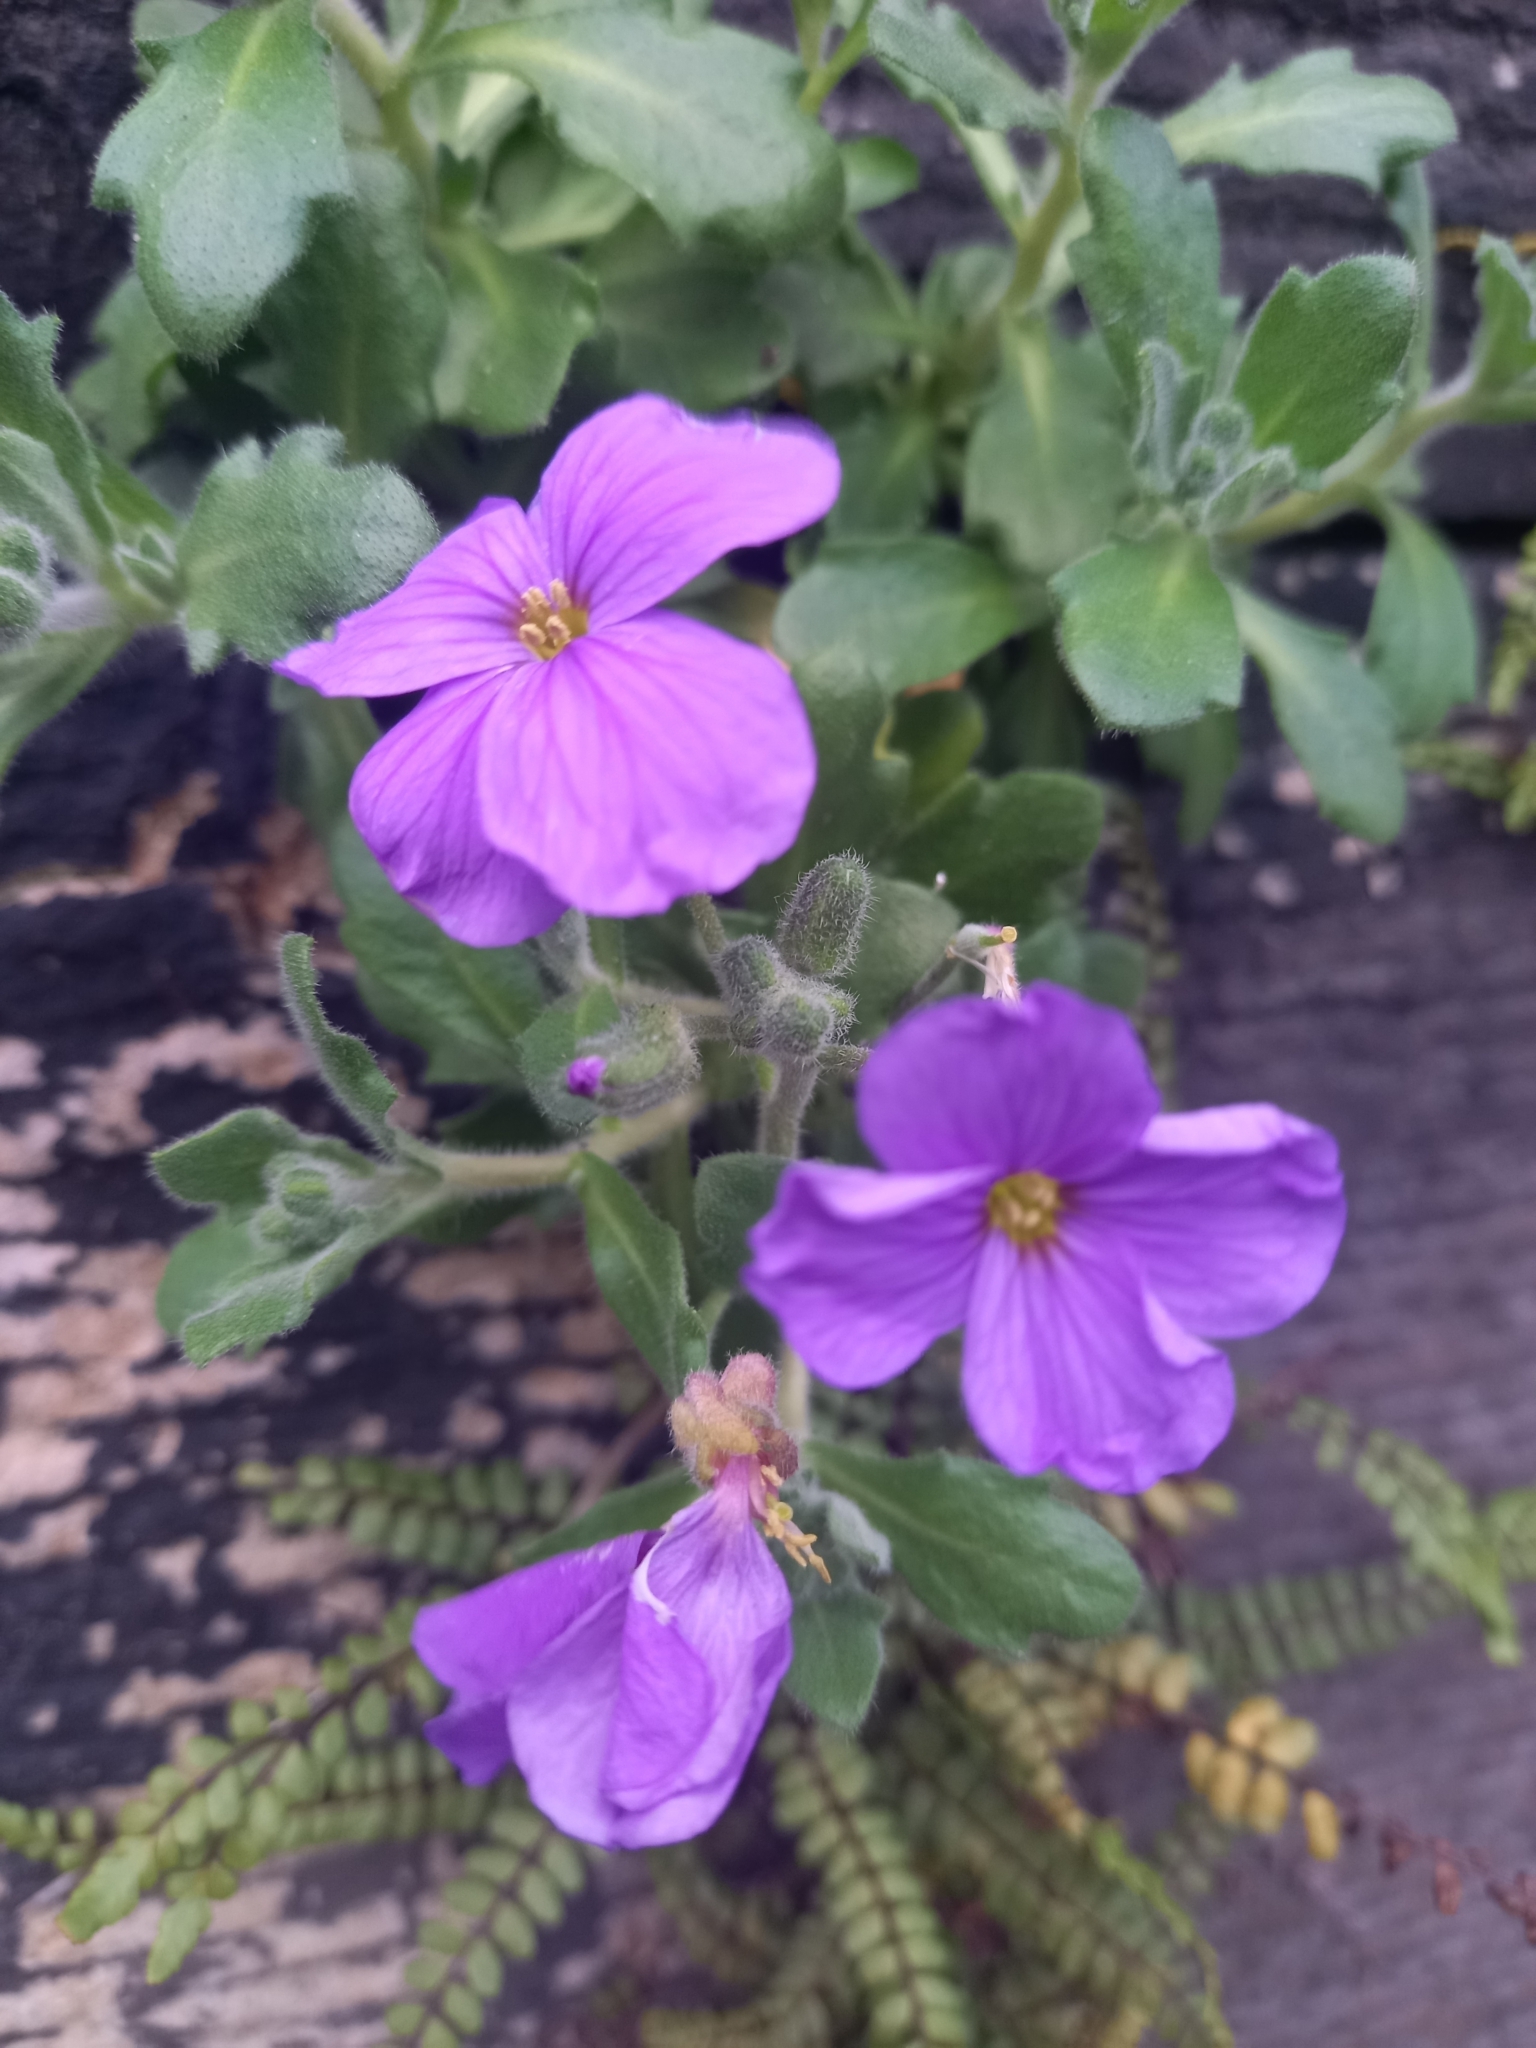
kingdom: Plantae
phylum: Tracheophyta
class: Magnoliopsida
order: Brassicales
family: Brassicaceae
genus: Aubrieta
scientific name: Aubrieta deltoidea
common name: Aubretia
